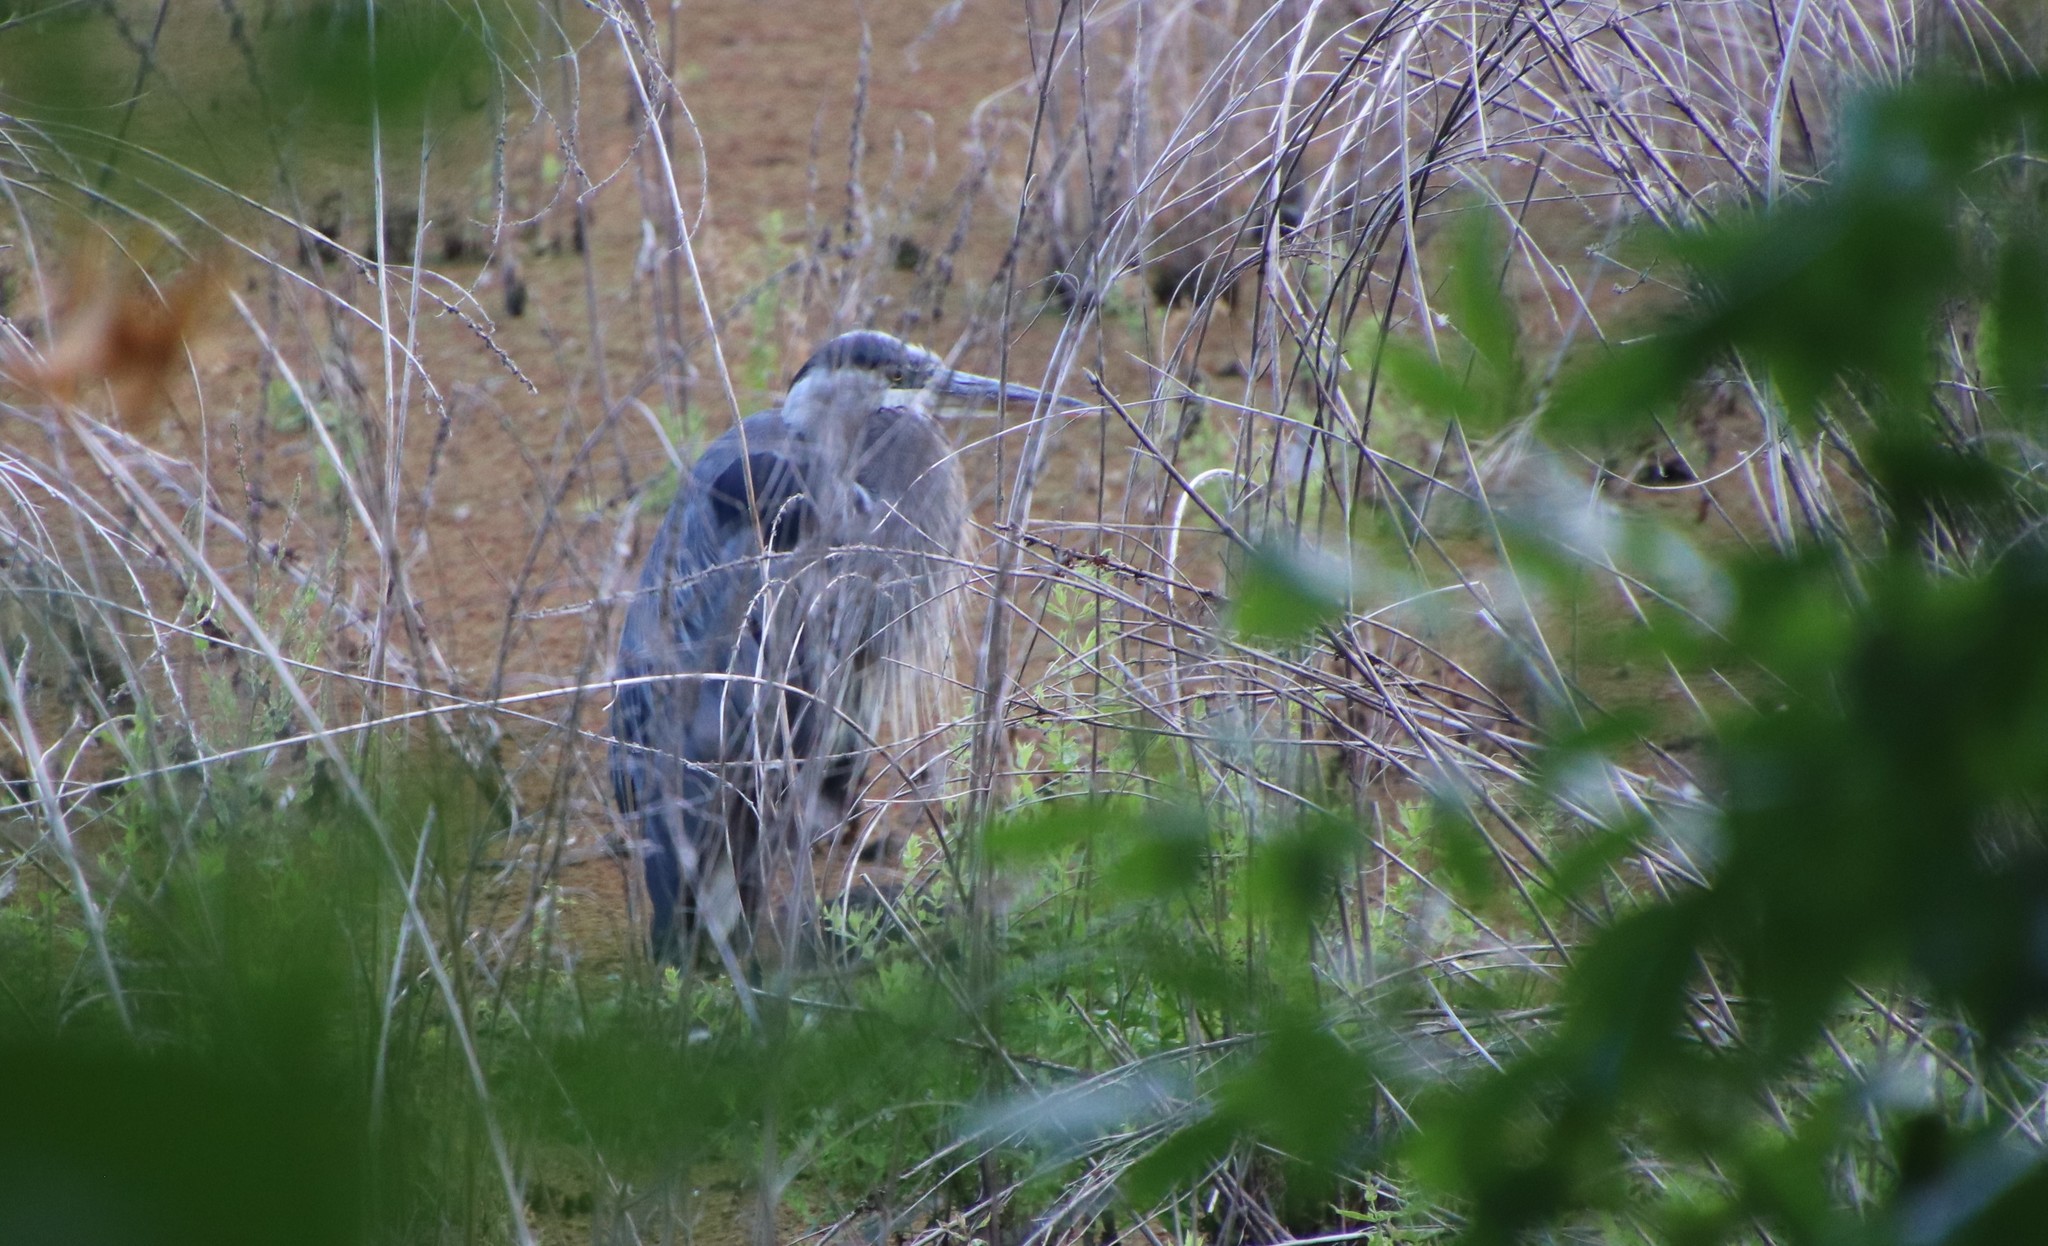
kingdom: Animalia
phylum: Chordata
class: Aves
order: Pelecaniformes
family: Ardeidae
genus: Ardea
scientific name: Ardea herodias
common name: Great blue heron
